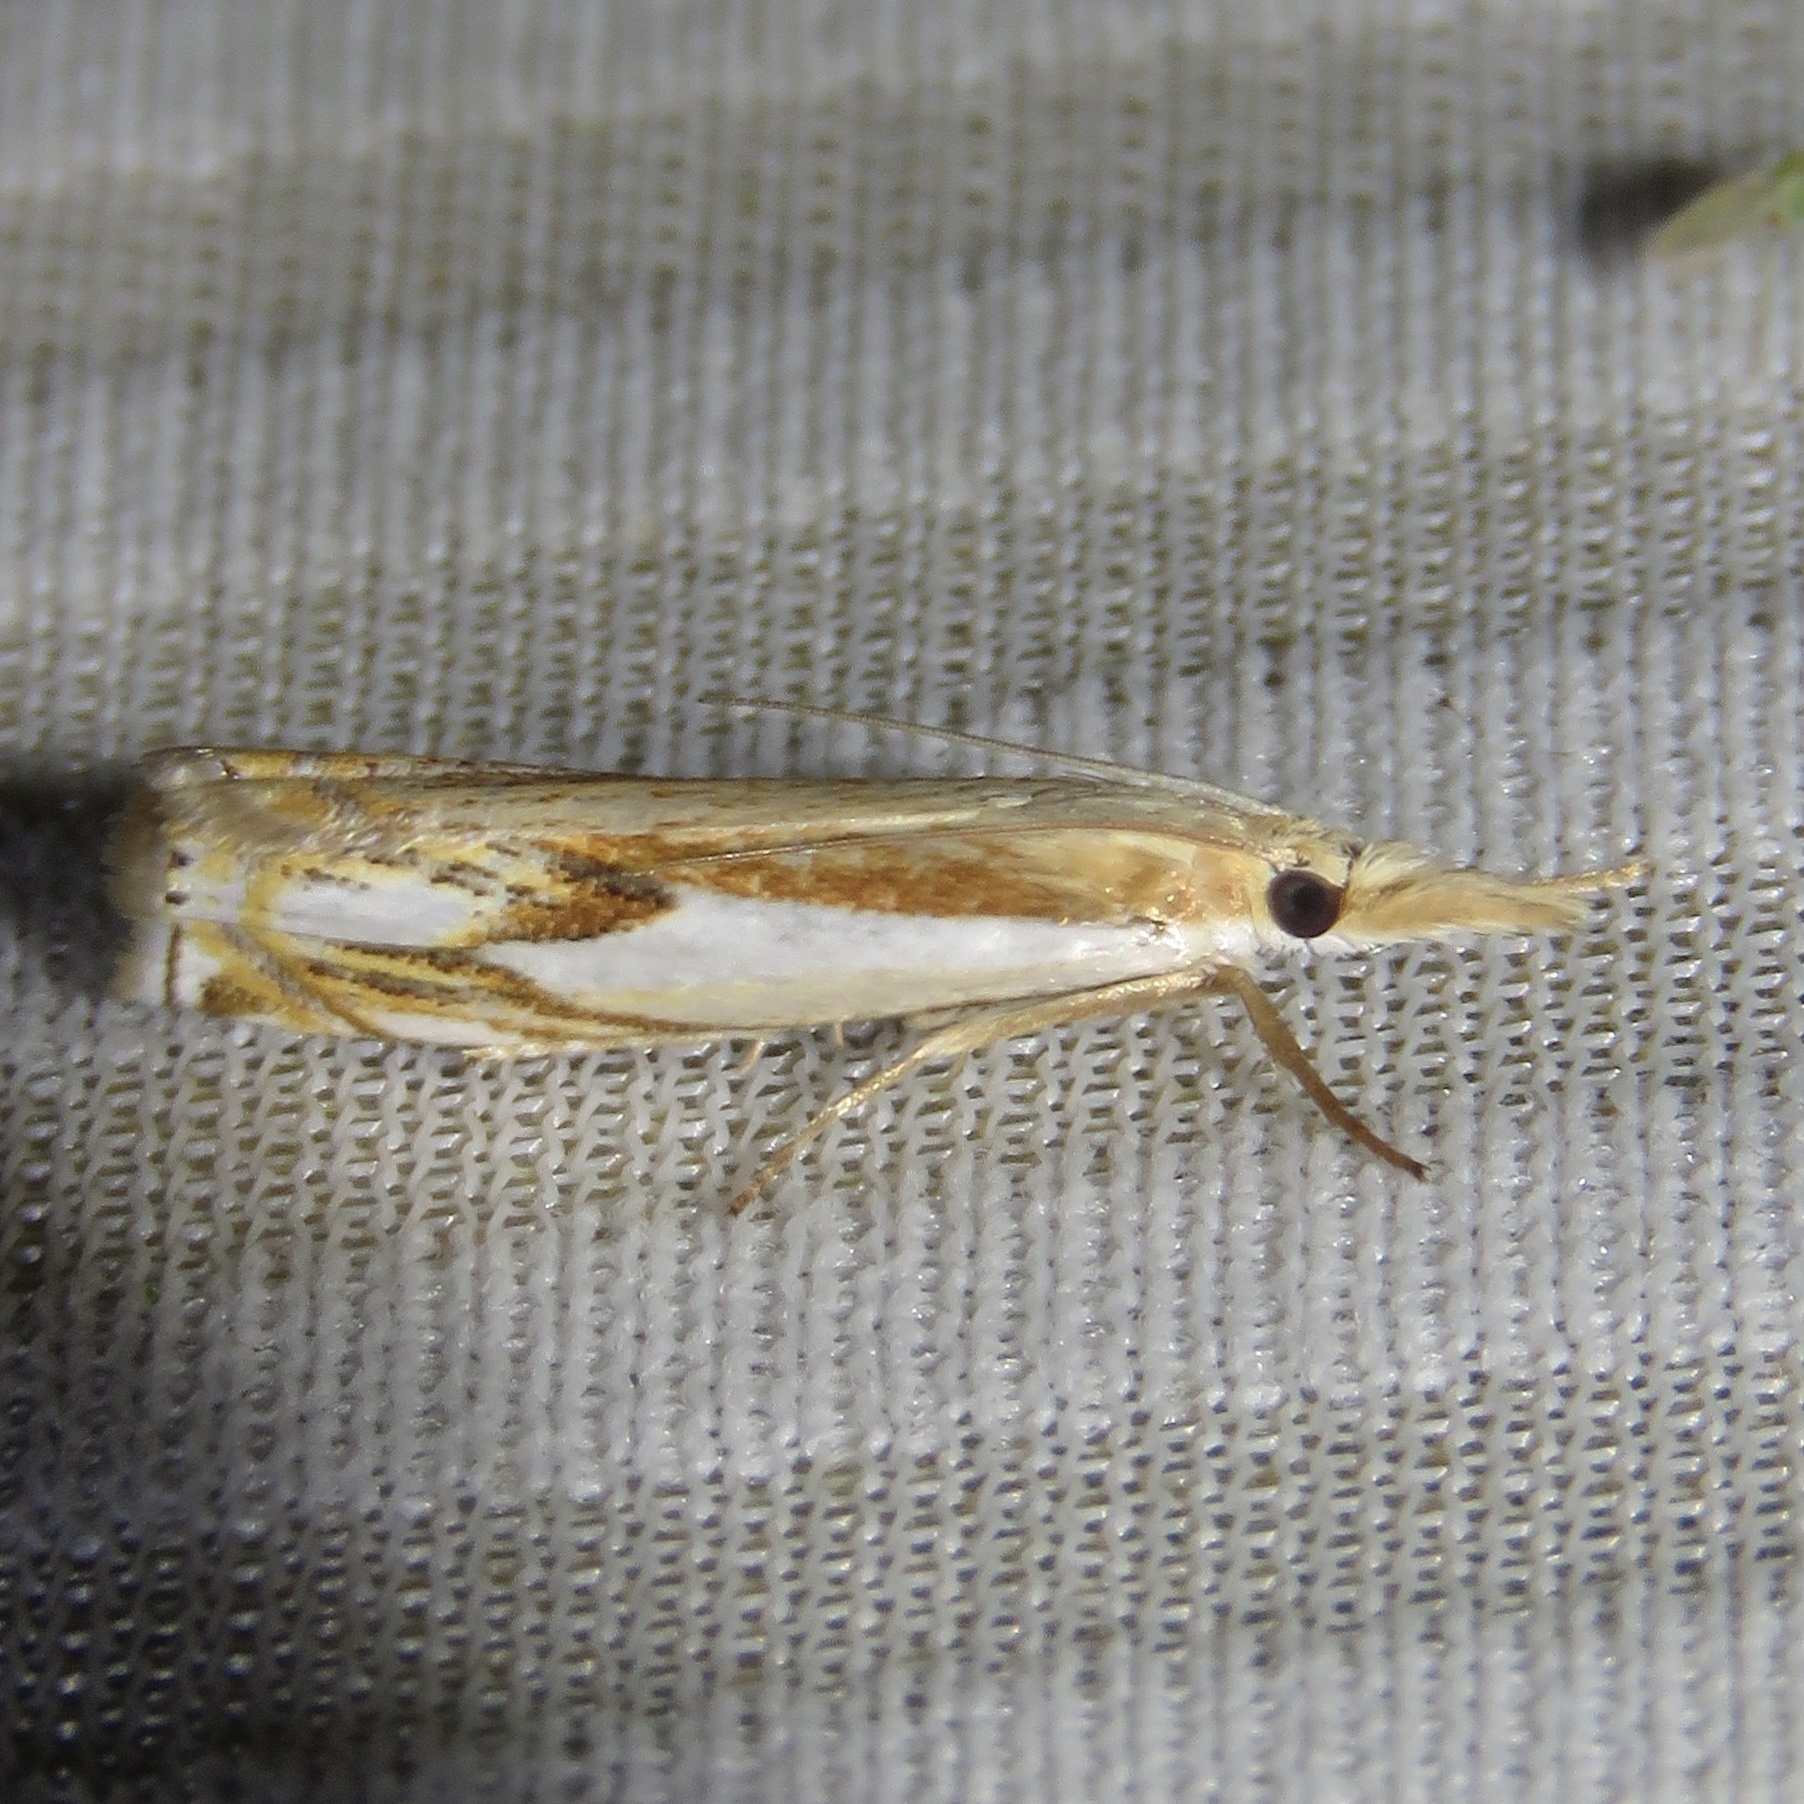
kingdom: Animalia
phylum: Arthropoda
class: Insecta
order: Lepidoptera
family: Crambidae
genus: Crambus
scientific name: Crambus agitatellus
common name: Double-banded grass-veneer
